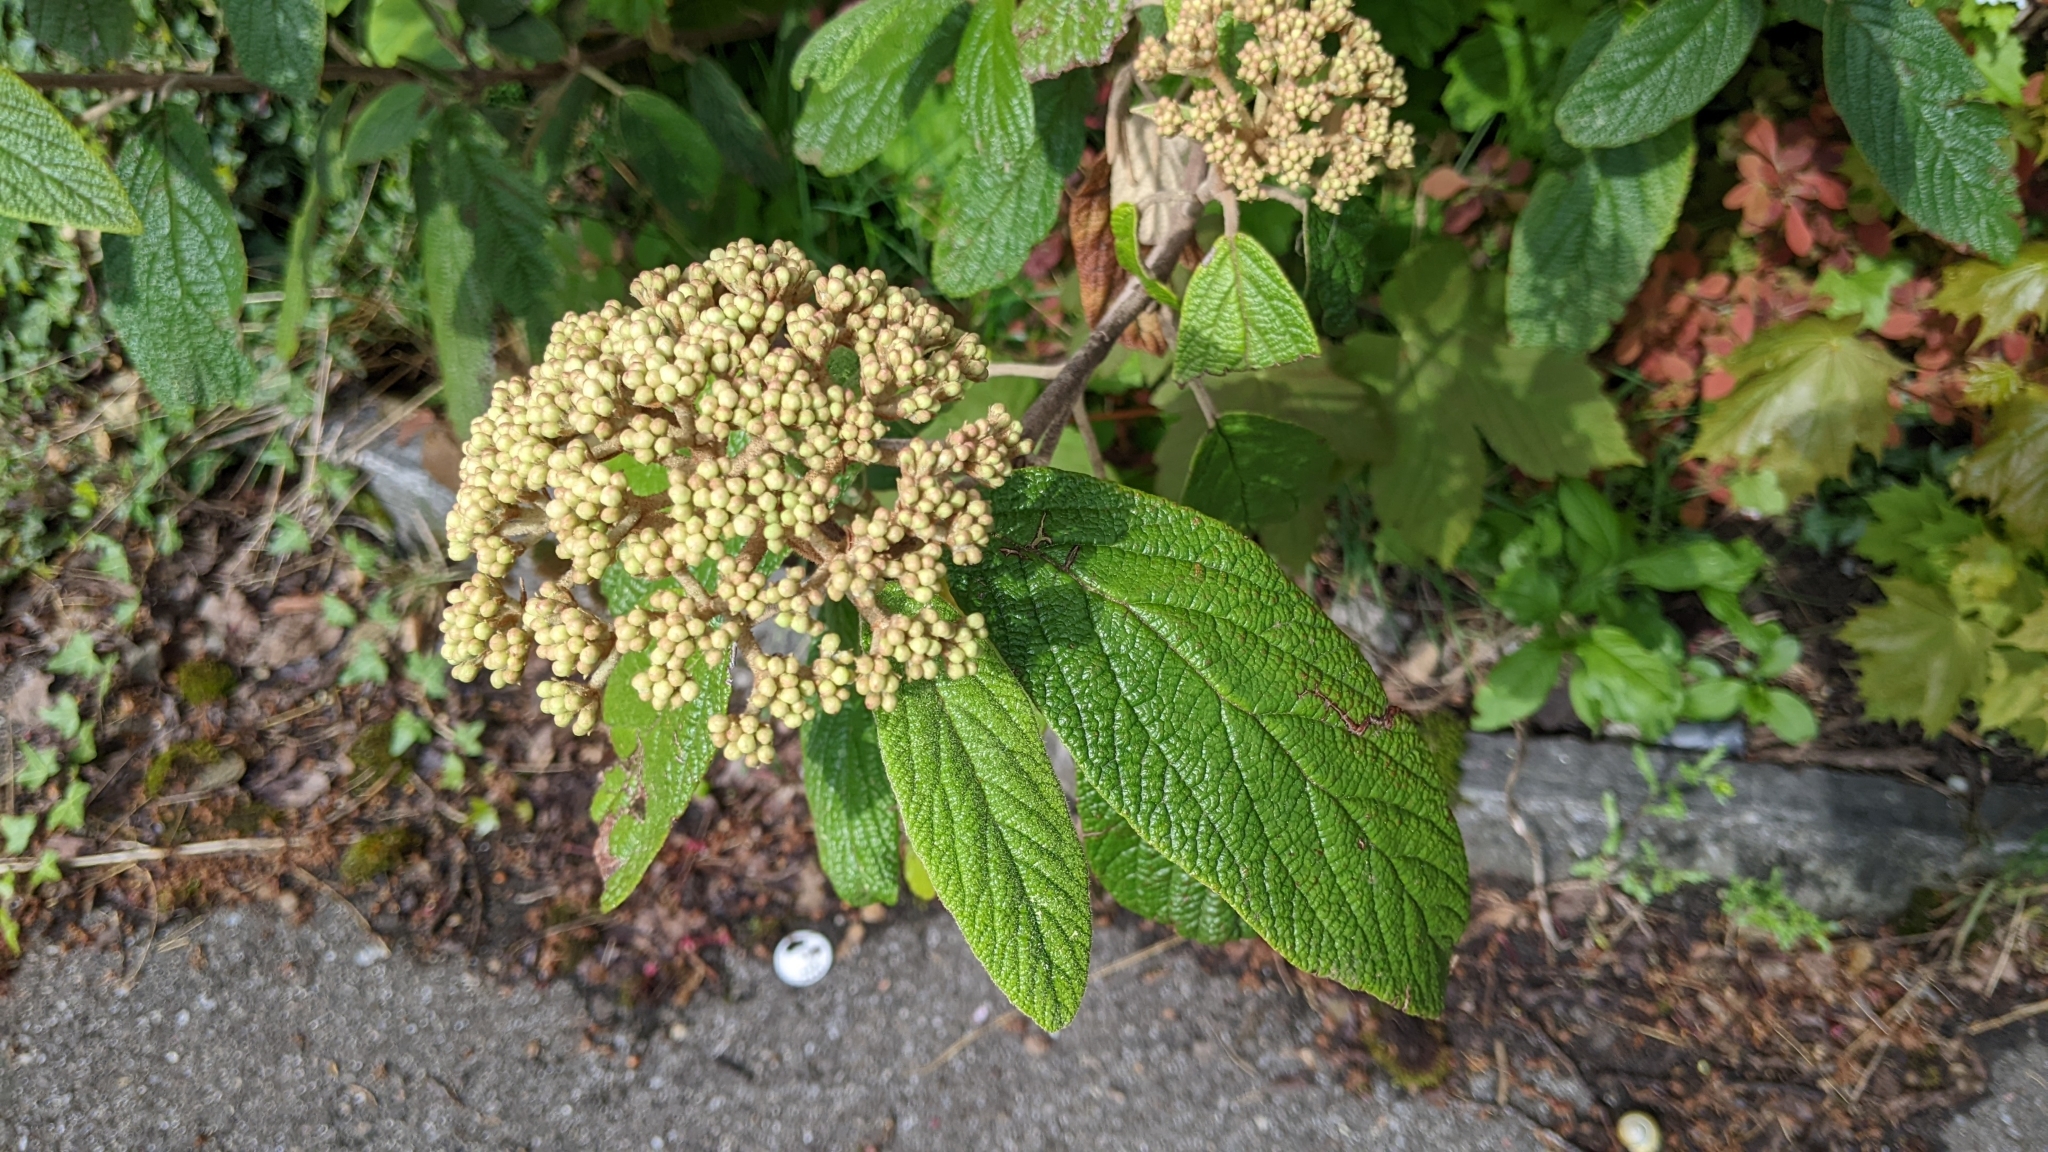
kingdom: Plantae
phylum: Tracheophyta
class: Magnoliopsida
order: Dipsacales
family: Viburnaceae
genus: Viburnum
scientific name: Viburnum rhytidophyllum
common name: Wrinkled viburnum
